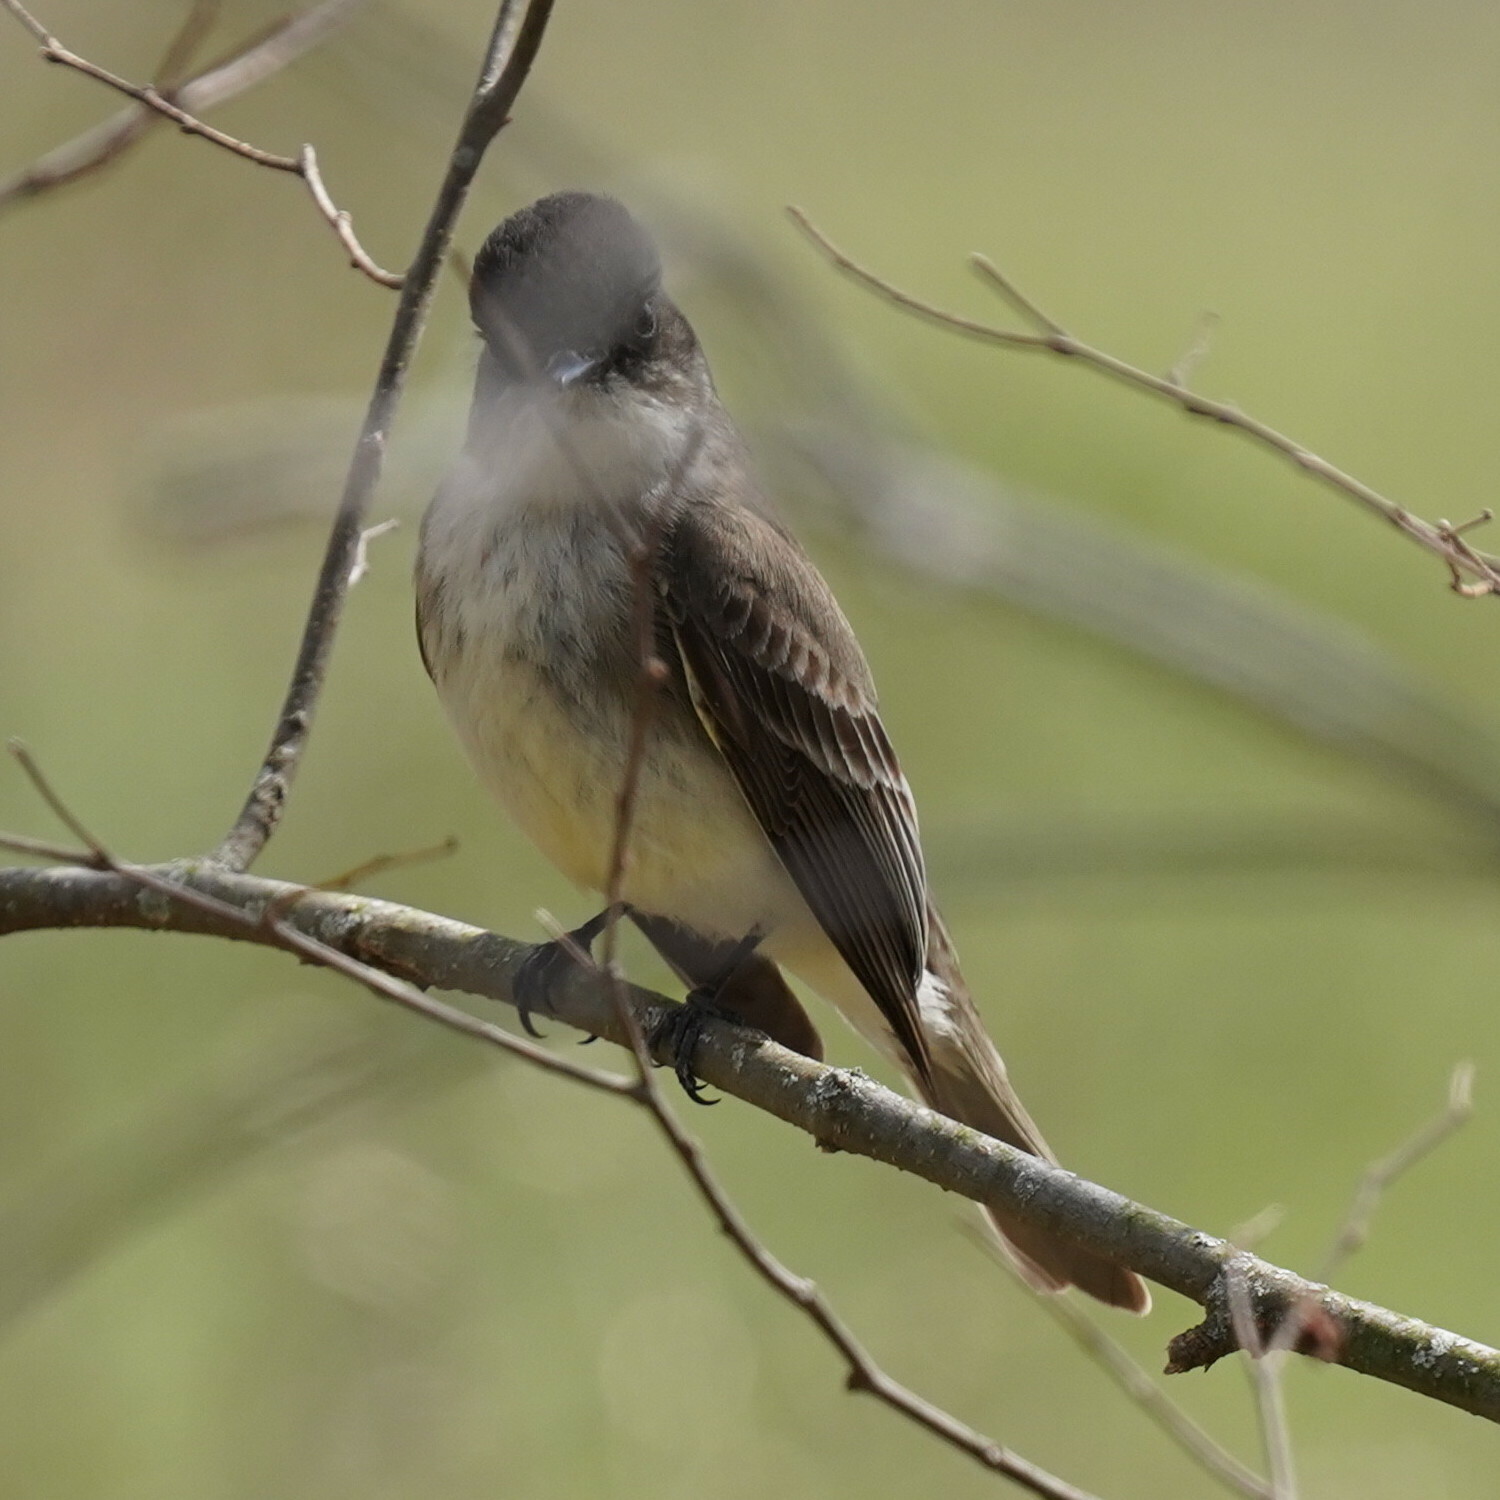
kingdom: Animalia
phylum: Chordata
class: Aves
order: Passeriformes
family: Tyrannidae
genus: Sayornis
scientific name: Sayornis phoebe
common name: Eastern phoebe
